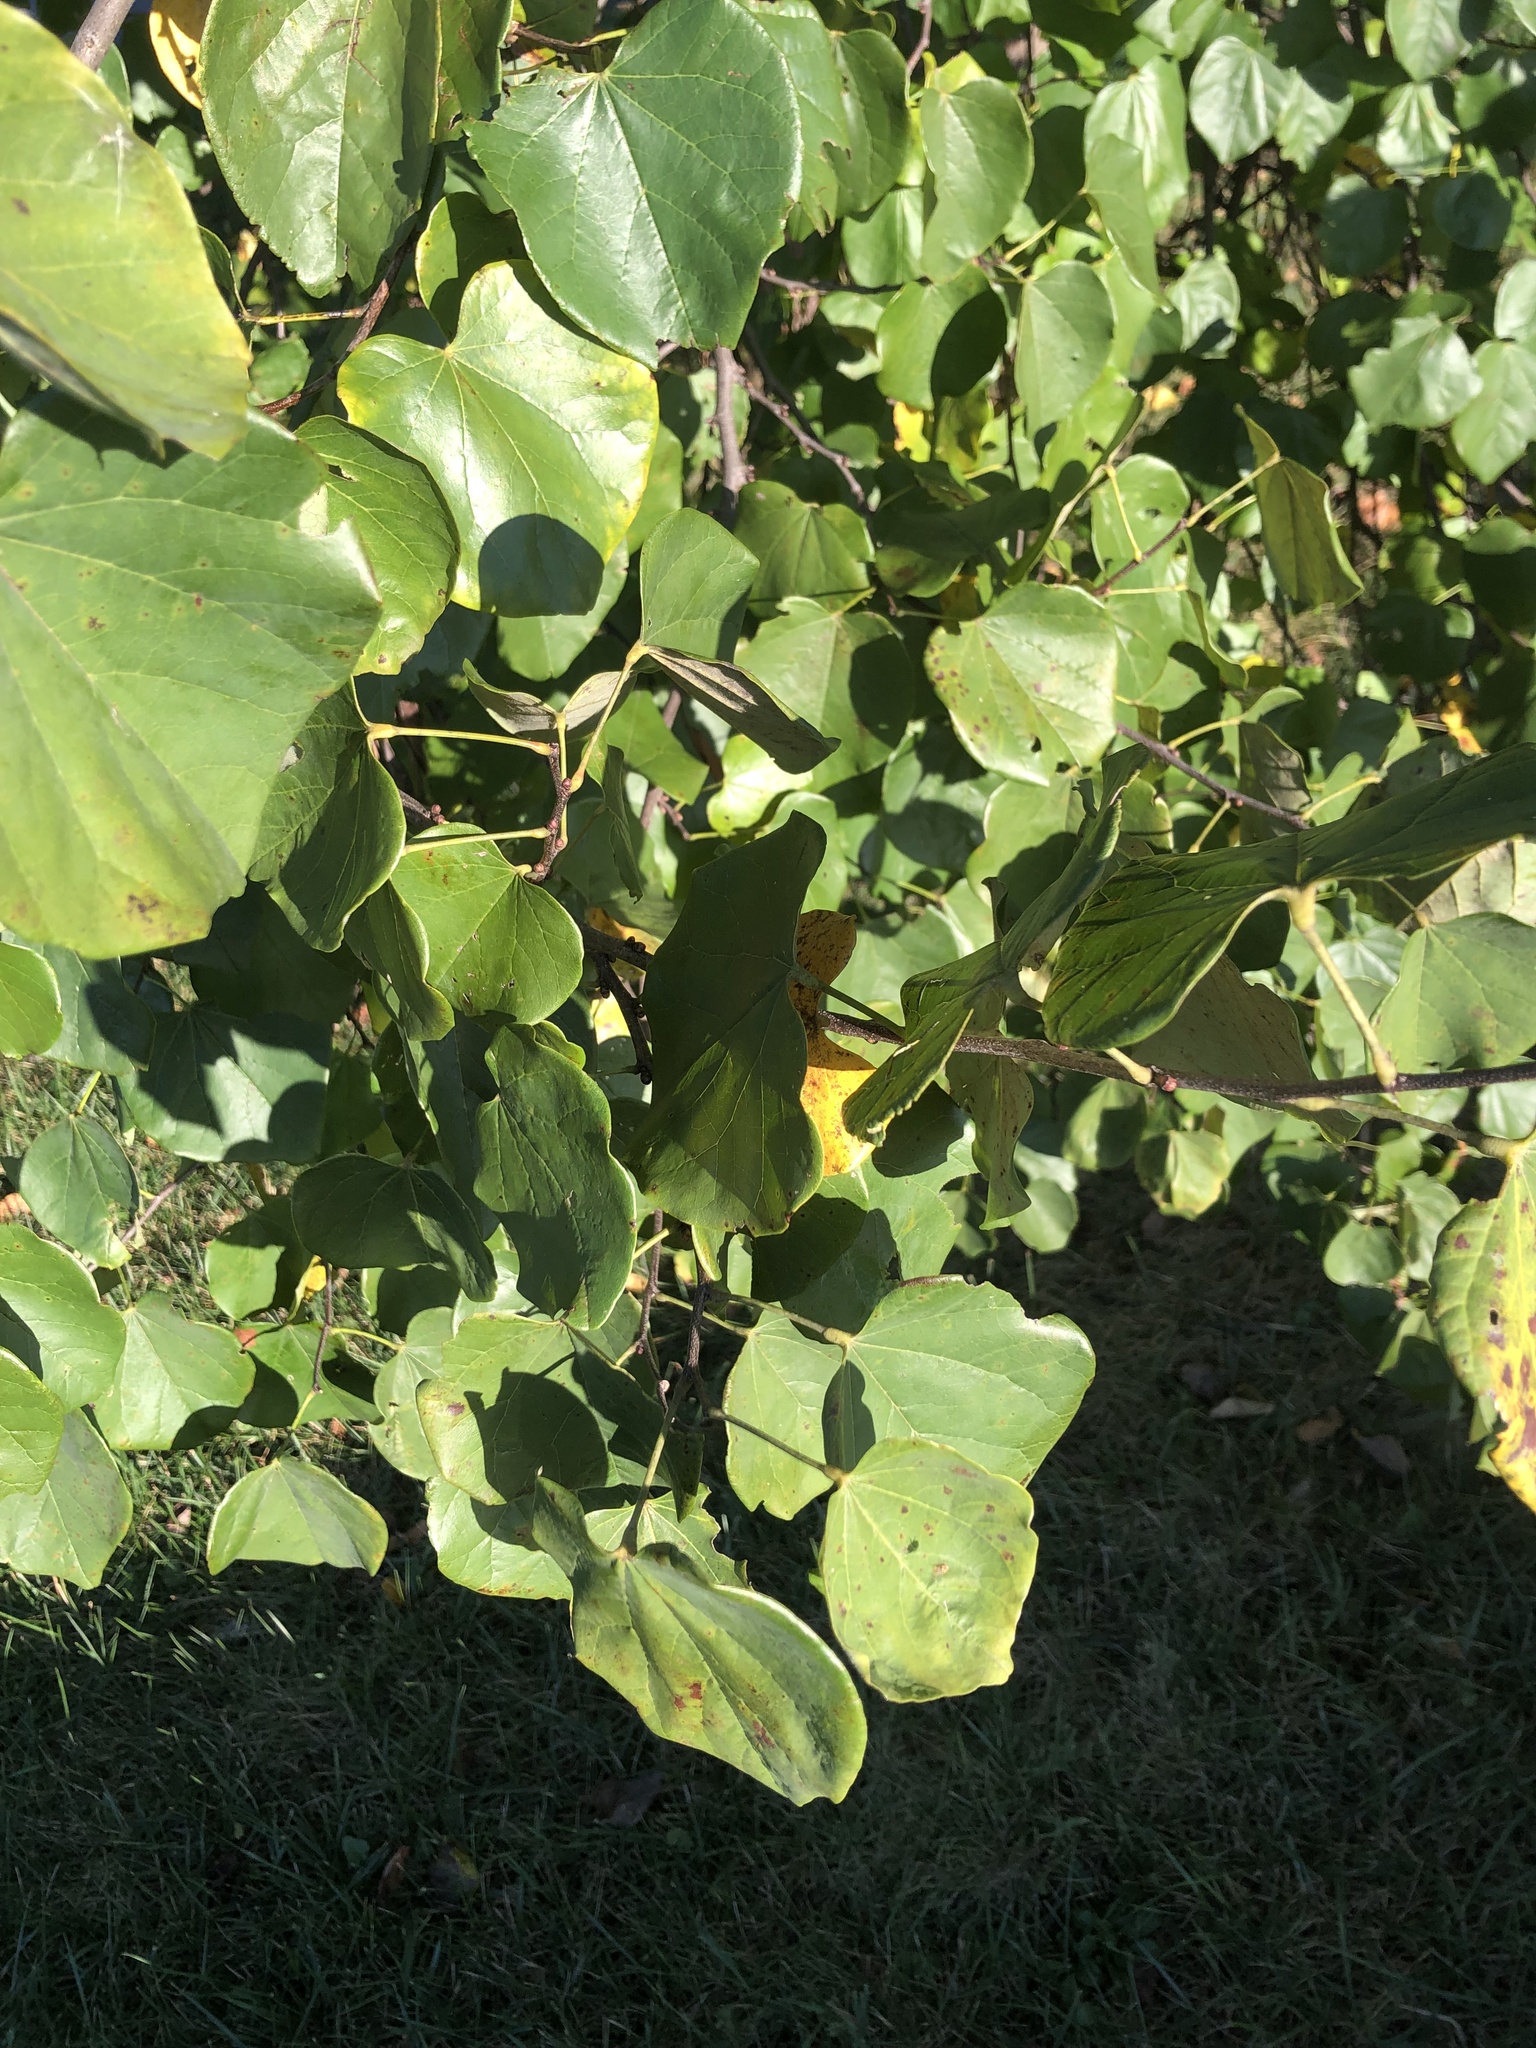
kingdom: Plantae
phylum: Tracheophyta
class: Magnoliopsida
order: Fabales
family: Fabaceae
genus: Cercis
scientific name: Cercis canadensis
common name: Eastern redbud
